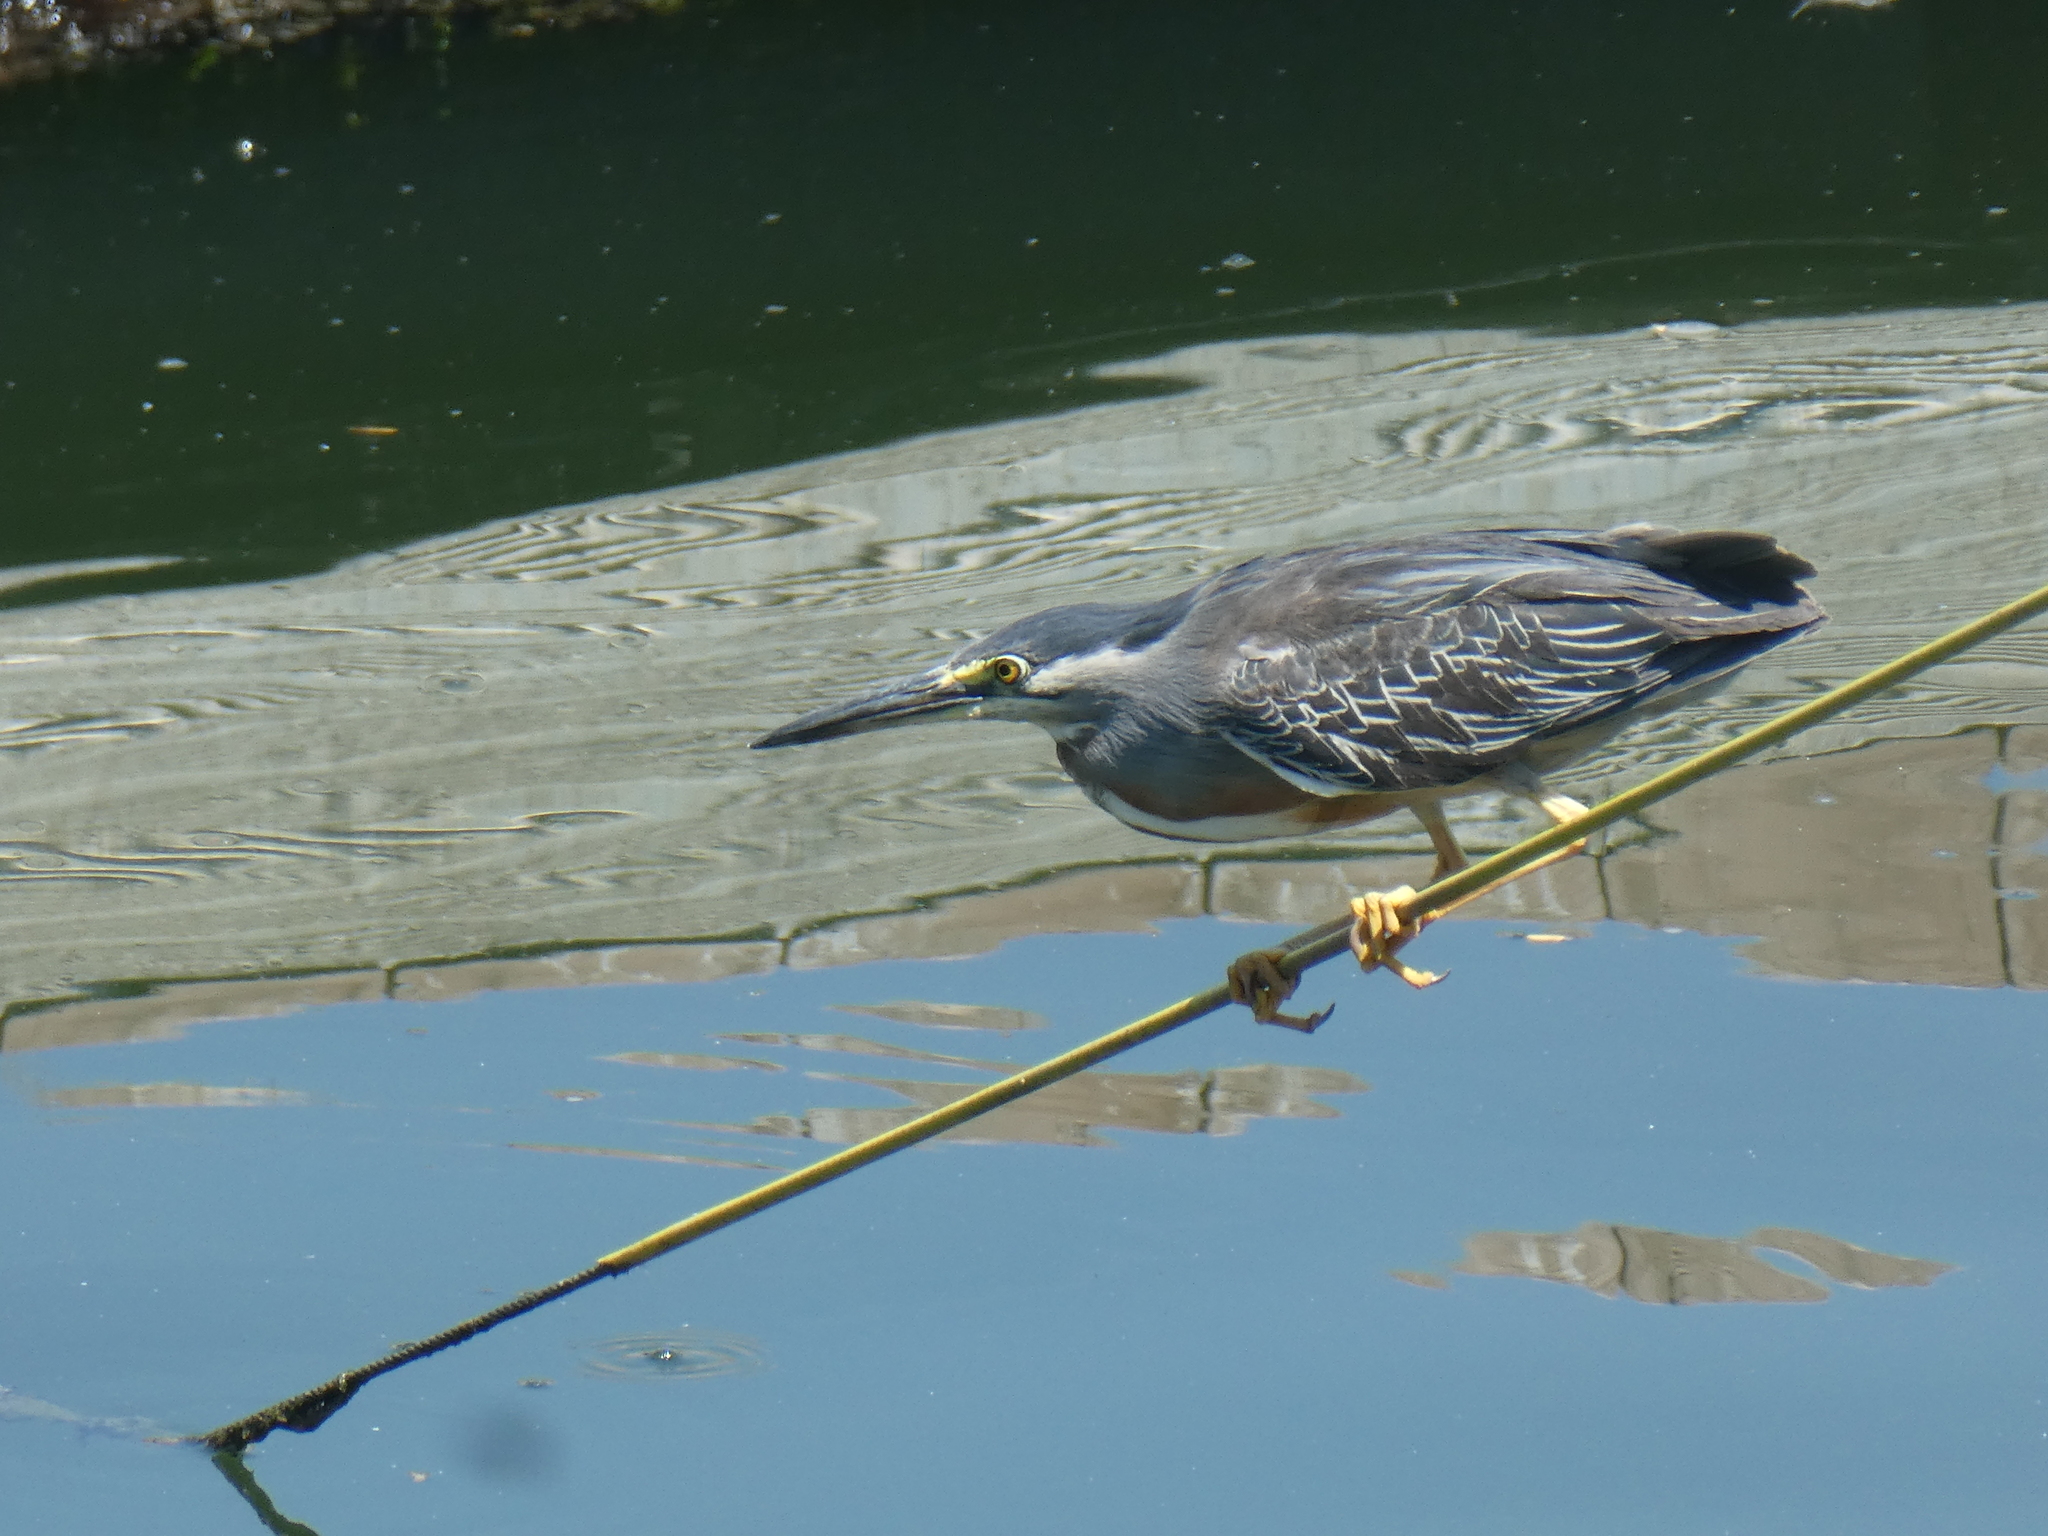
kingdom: Animalia
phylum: Chordata
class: Aves
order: Pelecaniformes
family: Ardeidae
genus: Butorides
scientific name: Butorides striata
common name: Striated heron
